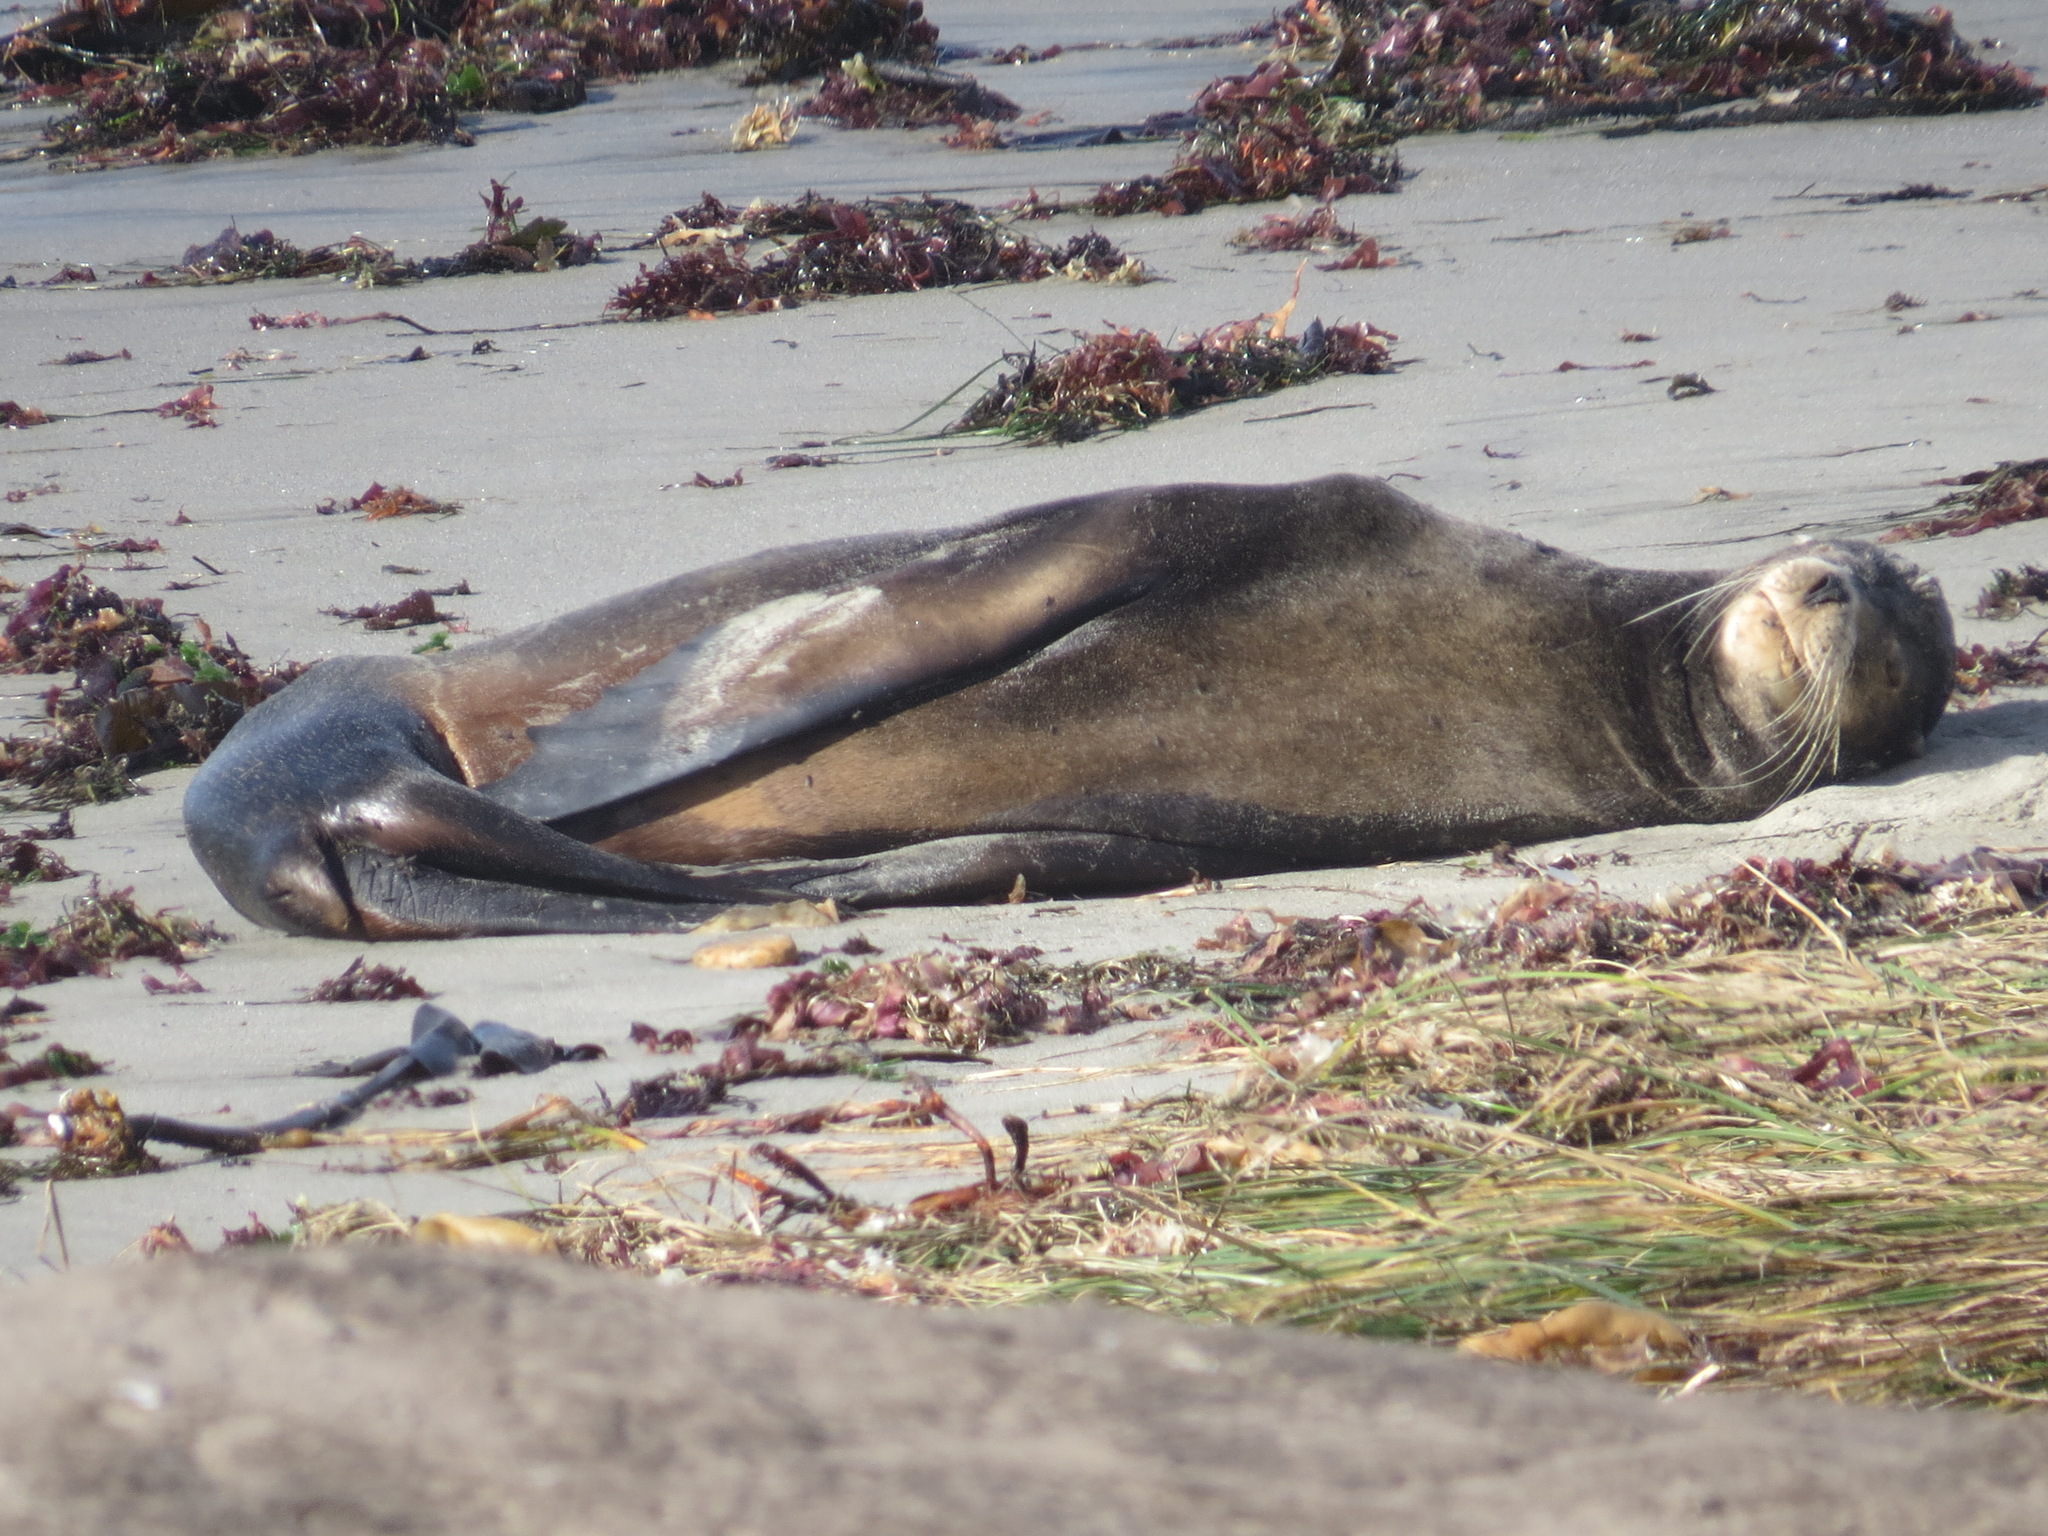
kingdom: Animalia
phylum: Chordata
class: Mammalia
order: Carnivora
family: Otariidae
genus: Zalophus
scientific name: Zalophus californianus
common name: California sea lion
